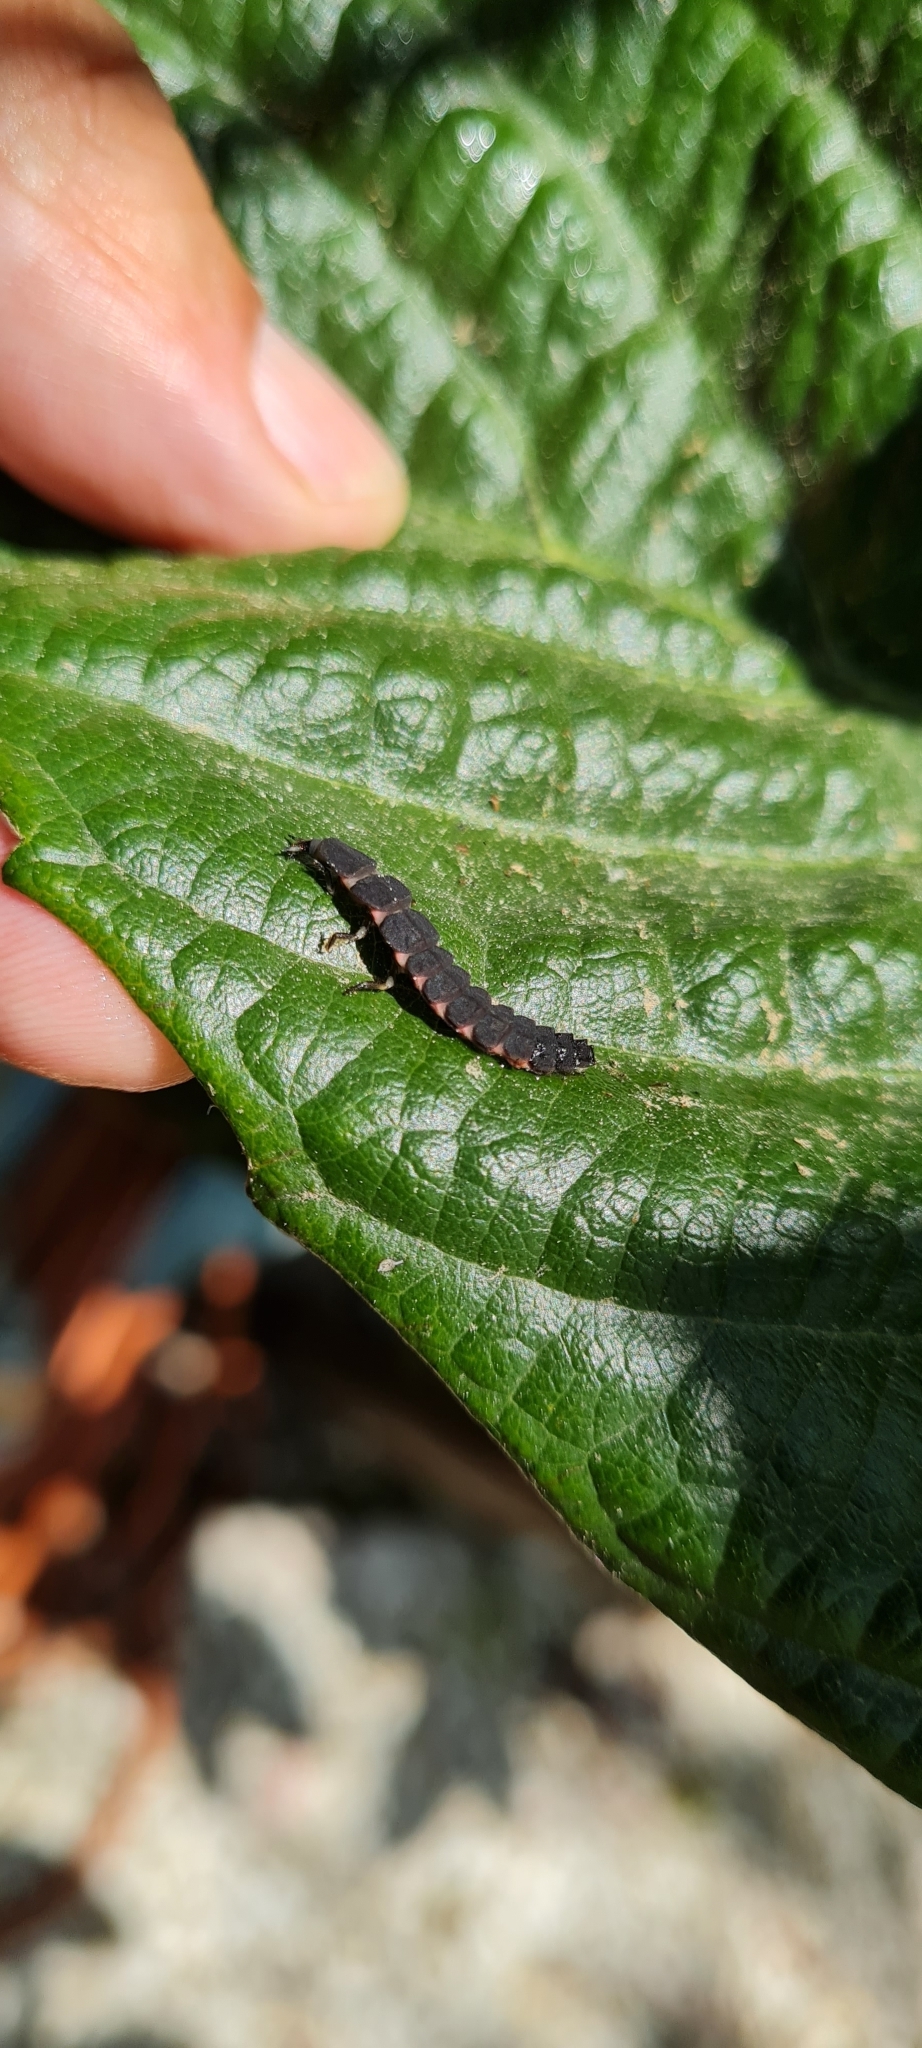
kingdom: Animalia
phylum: Arthropoda
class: Insecta
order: Coleoptera
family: Lampyridae
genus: Nyctophila
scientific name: Nyctophila reichii
